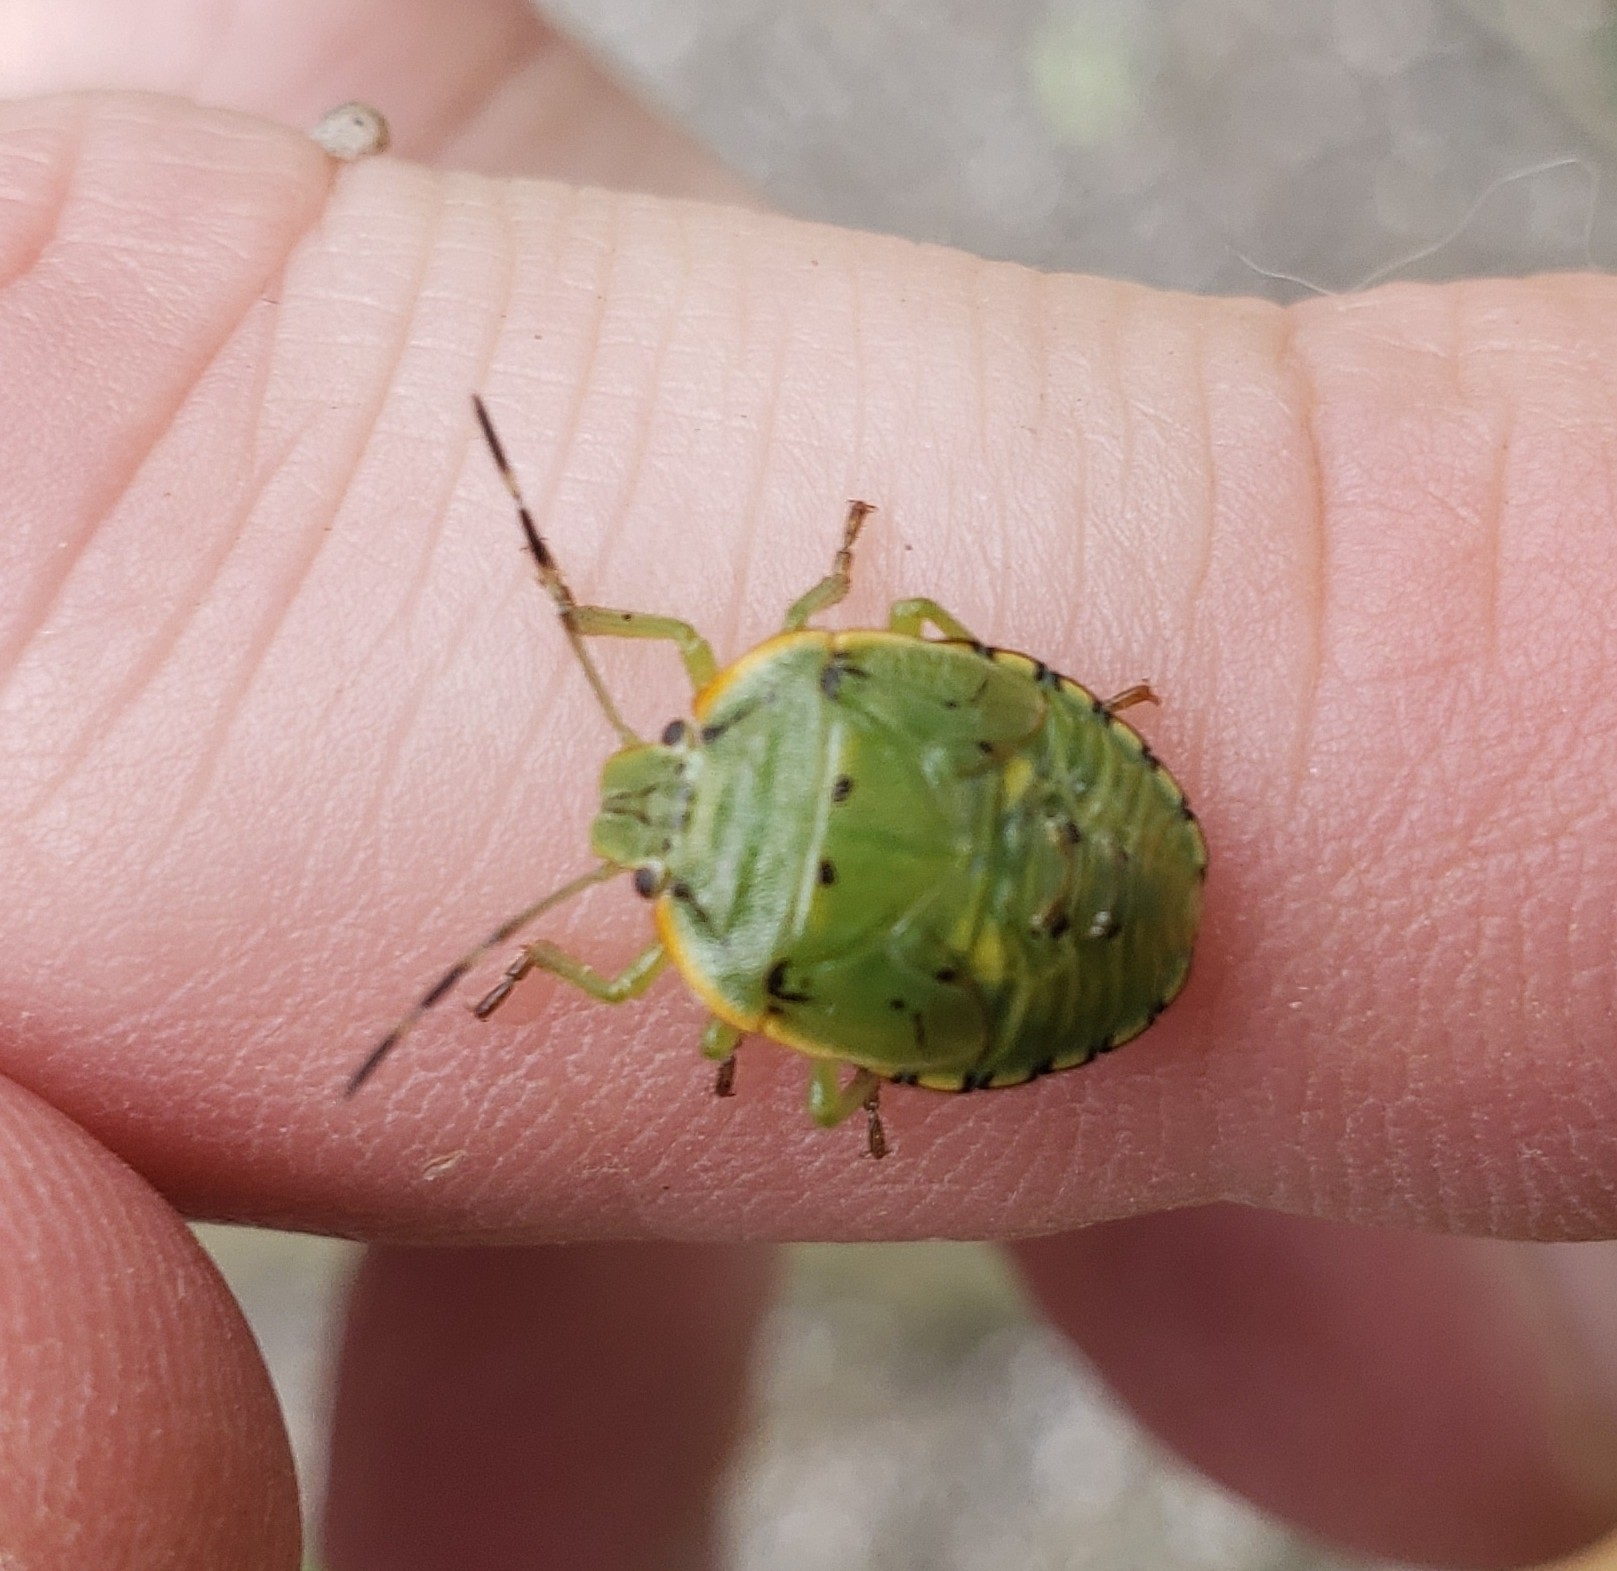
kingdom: Animalia
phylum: Arthropoda
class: Insecta
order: Hemiptera
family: Pentatomidae
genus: Chinavia
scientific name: Chinavia hilaris
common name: Green stink bug
